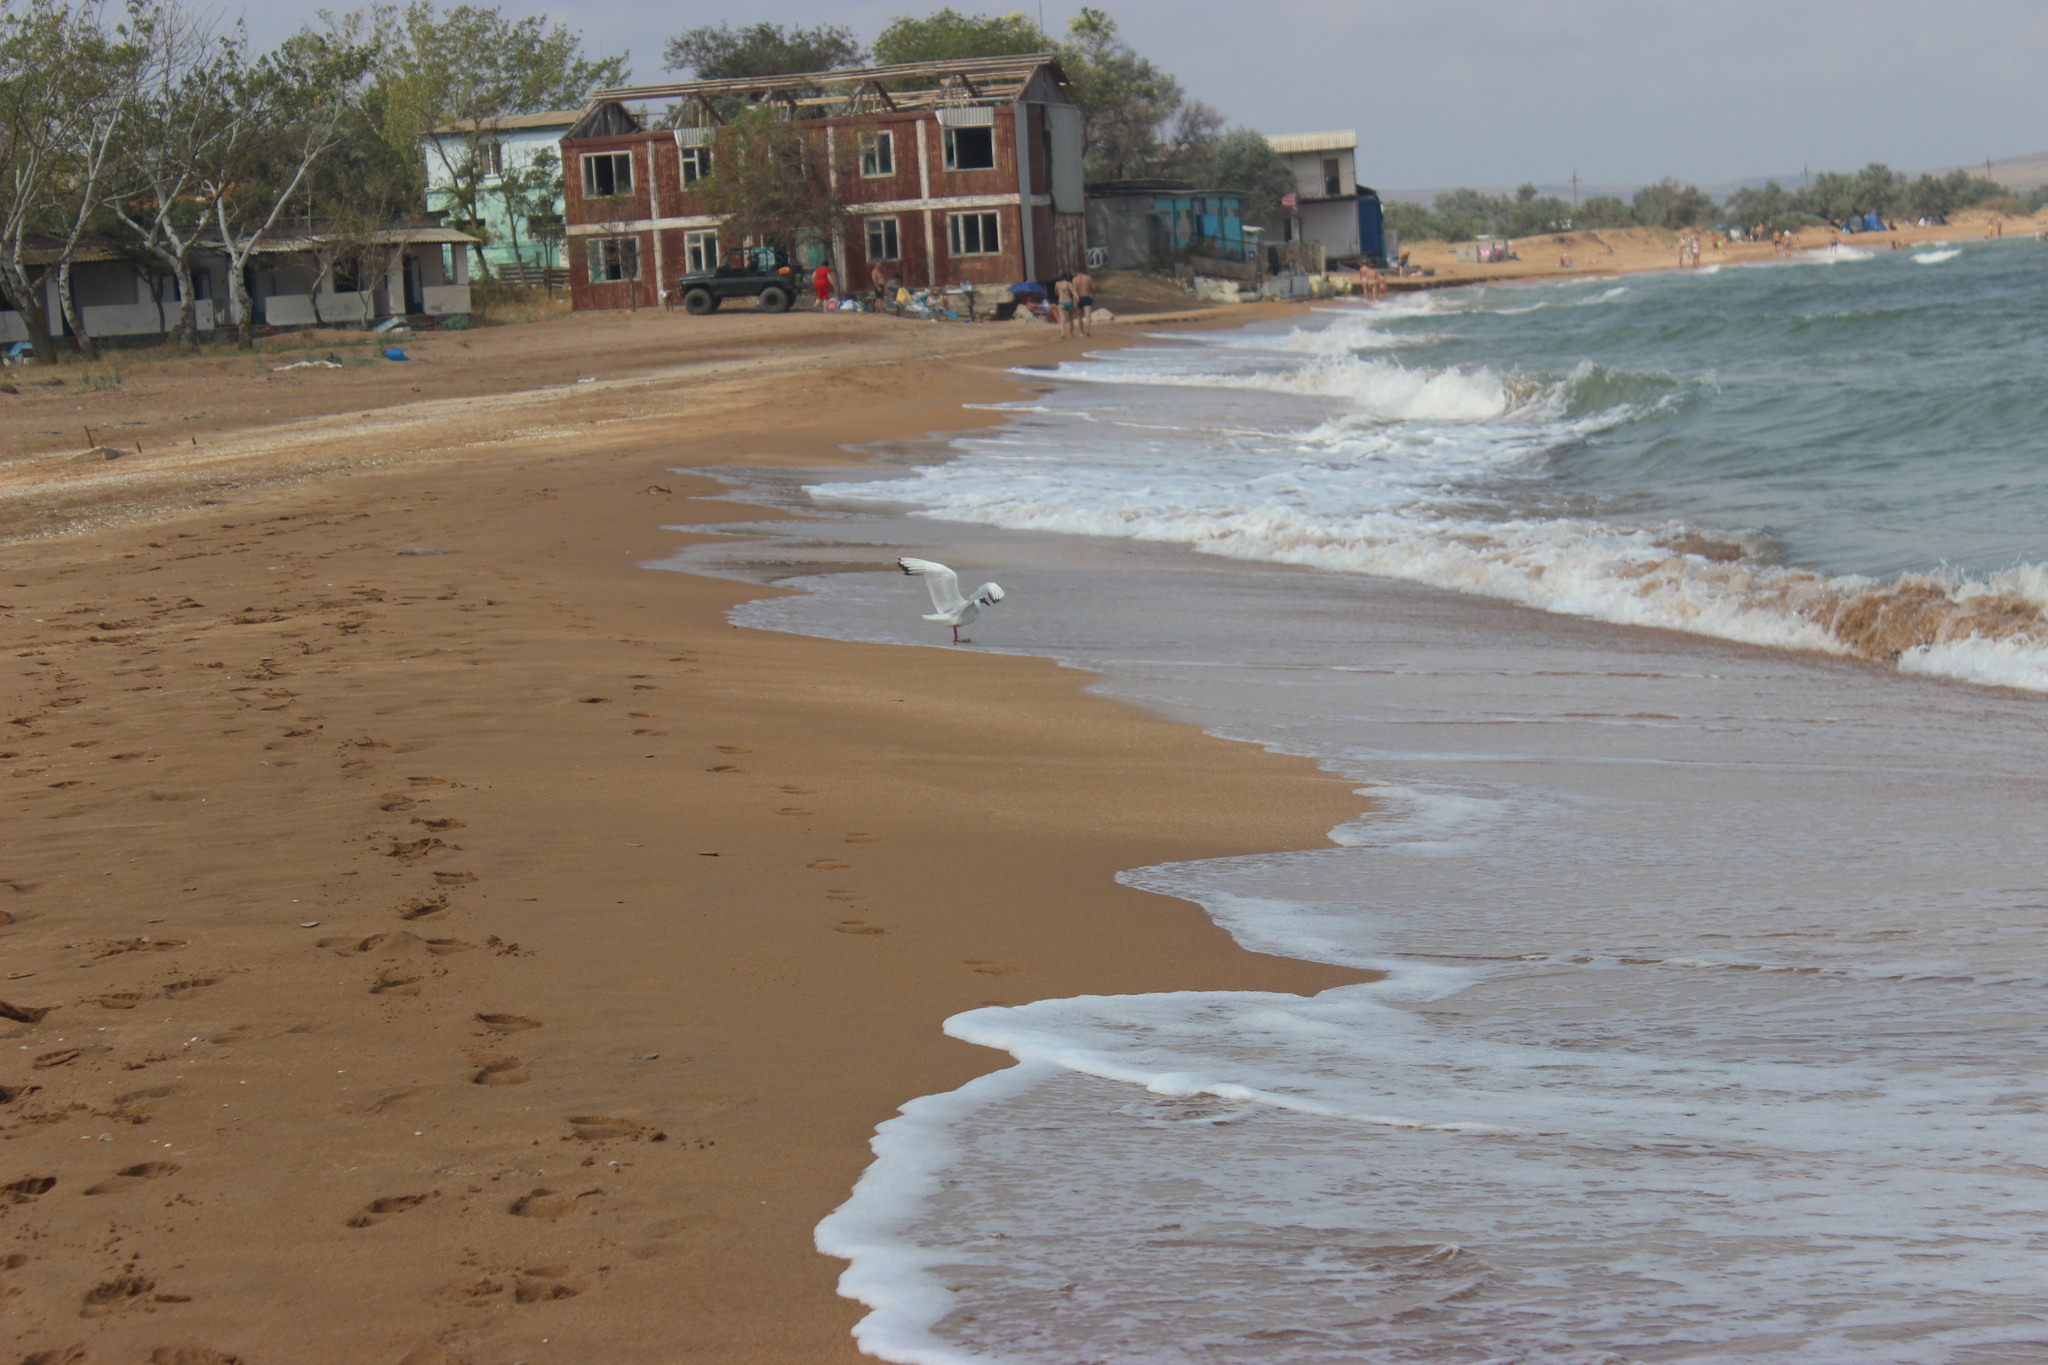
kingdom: Animalia
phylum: Chordata
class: Aves
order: Charadriiformes
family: Laridae
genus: Chroicocephalus
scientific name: Chroicocephalus ridibundus
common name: Black-headed gull
